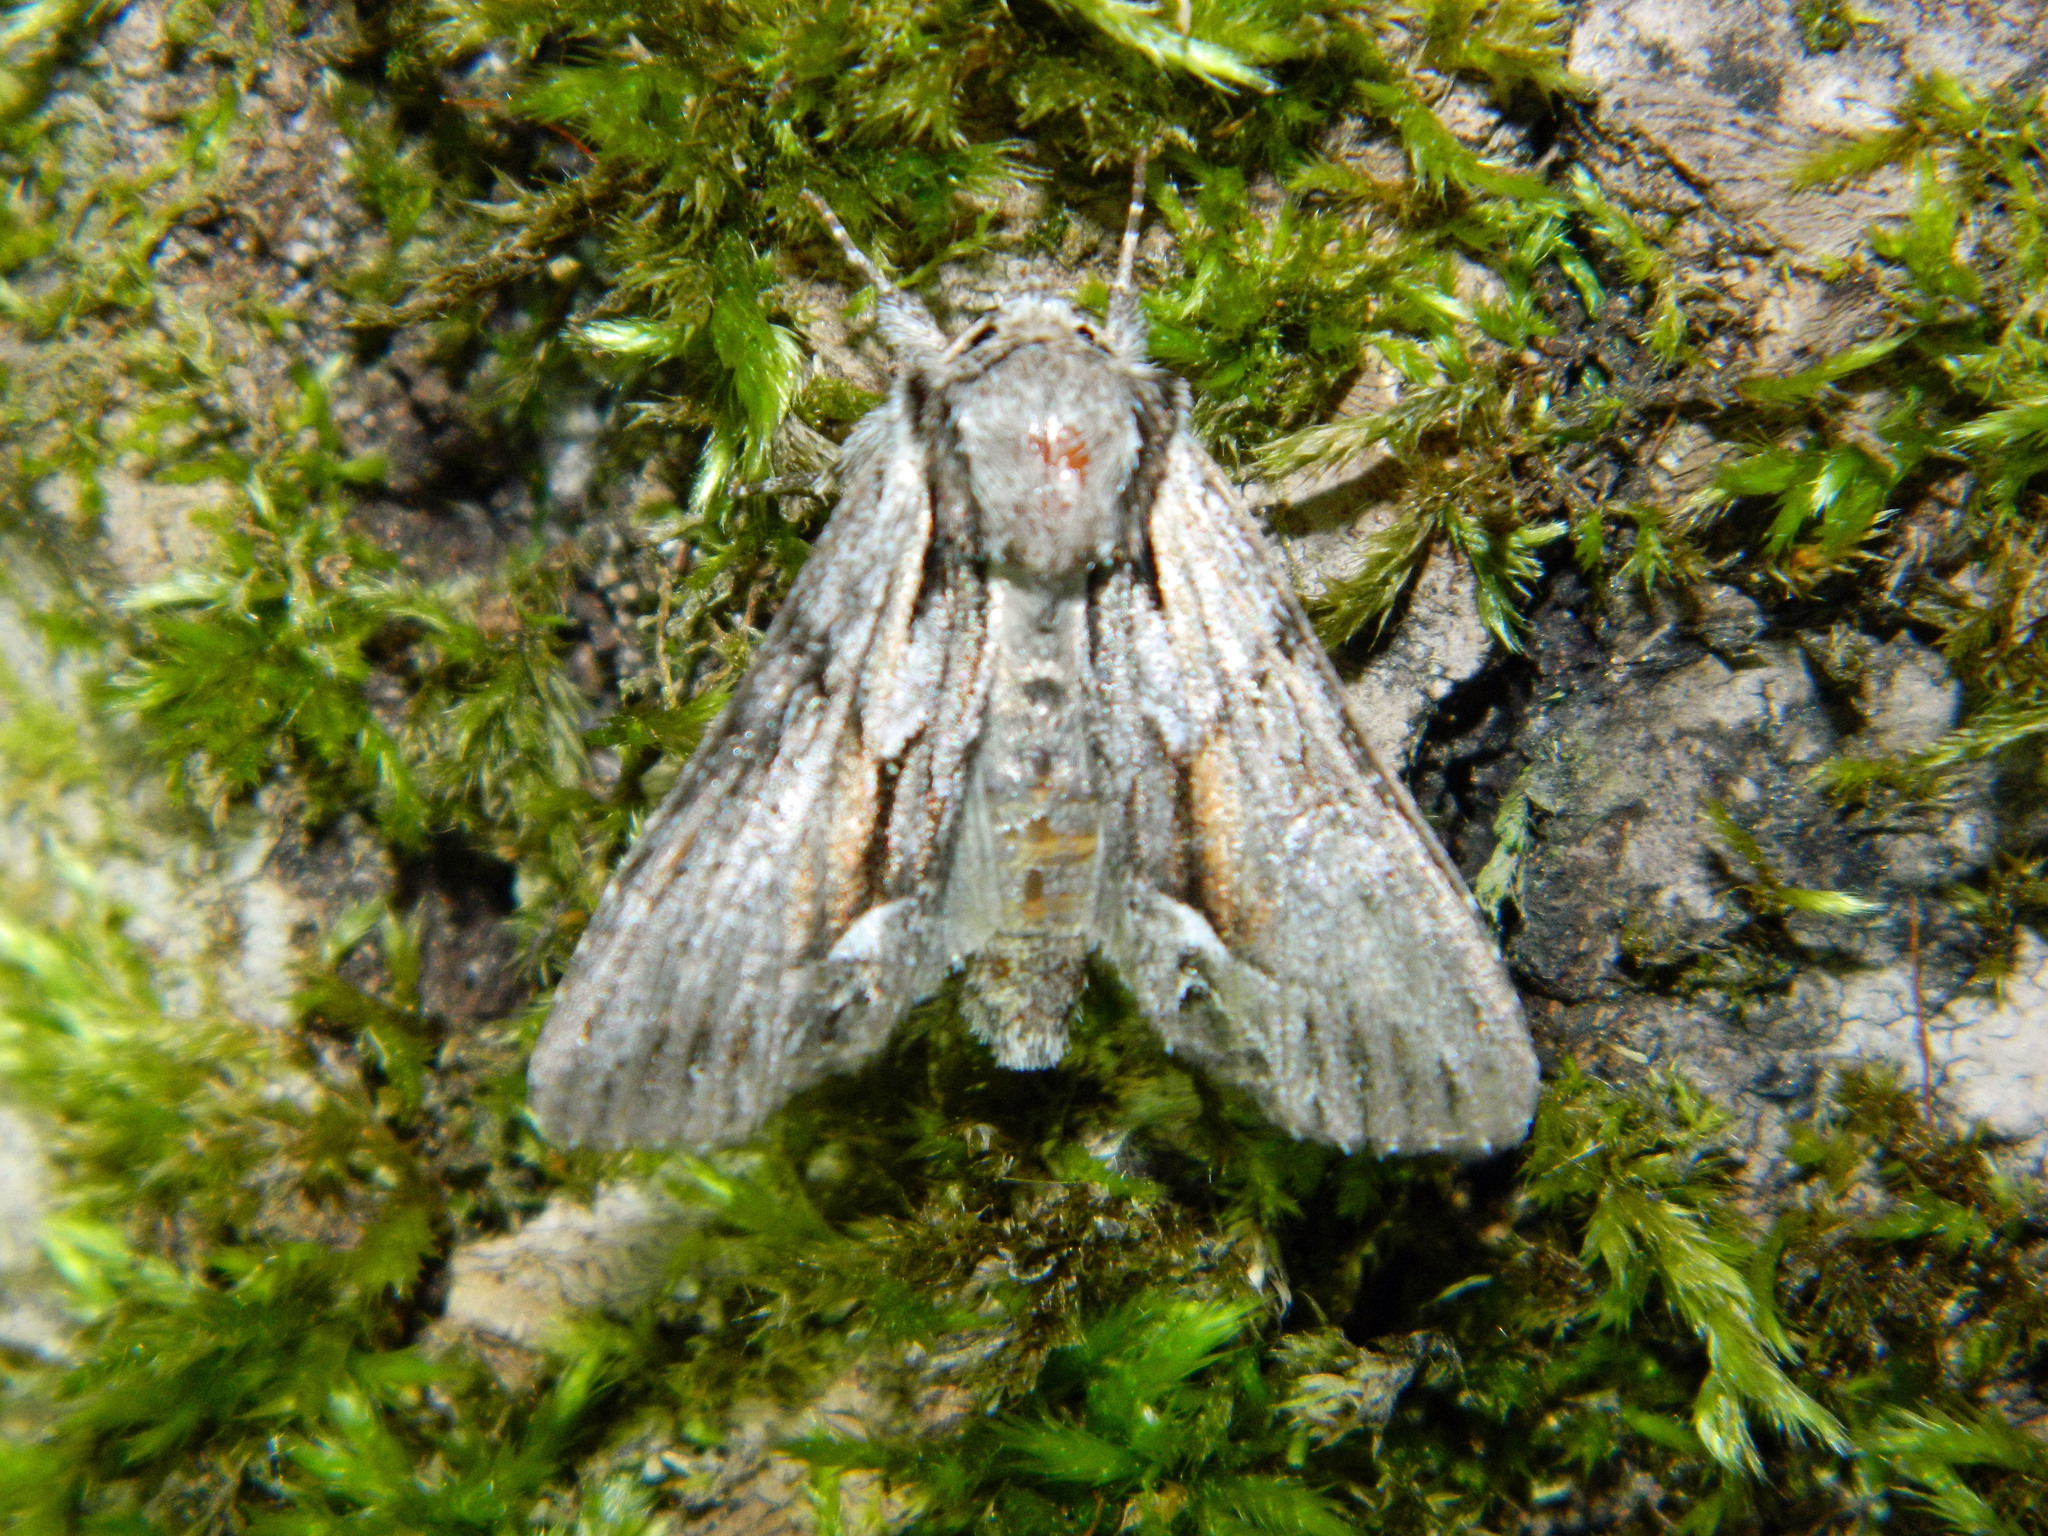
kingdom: Animalia
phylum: Arthropoda
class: Insecta
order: Lepidoptera
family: Noctuidae
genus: Hyppa
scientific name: Hyppa xylinoides
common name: Common hyppa moth
